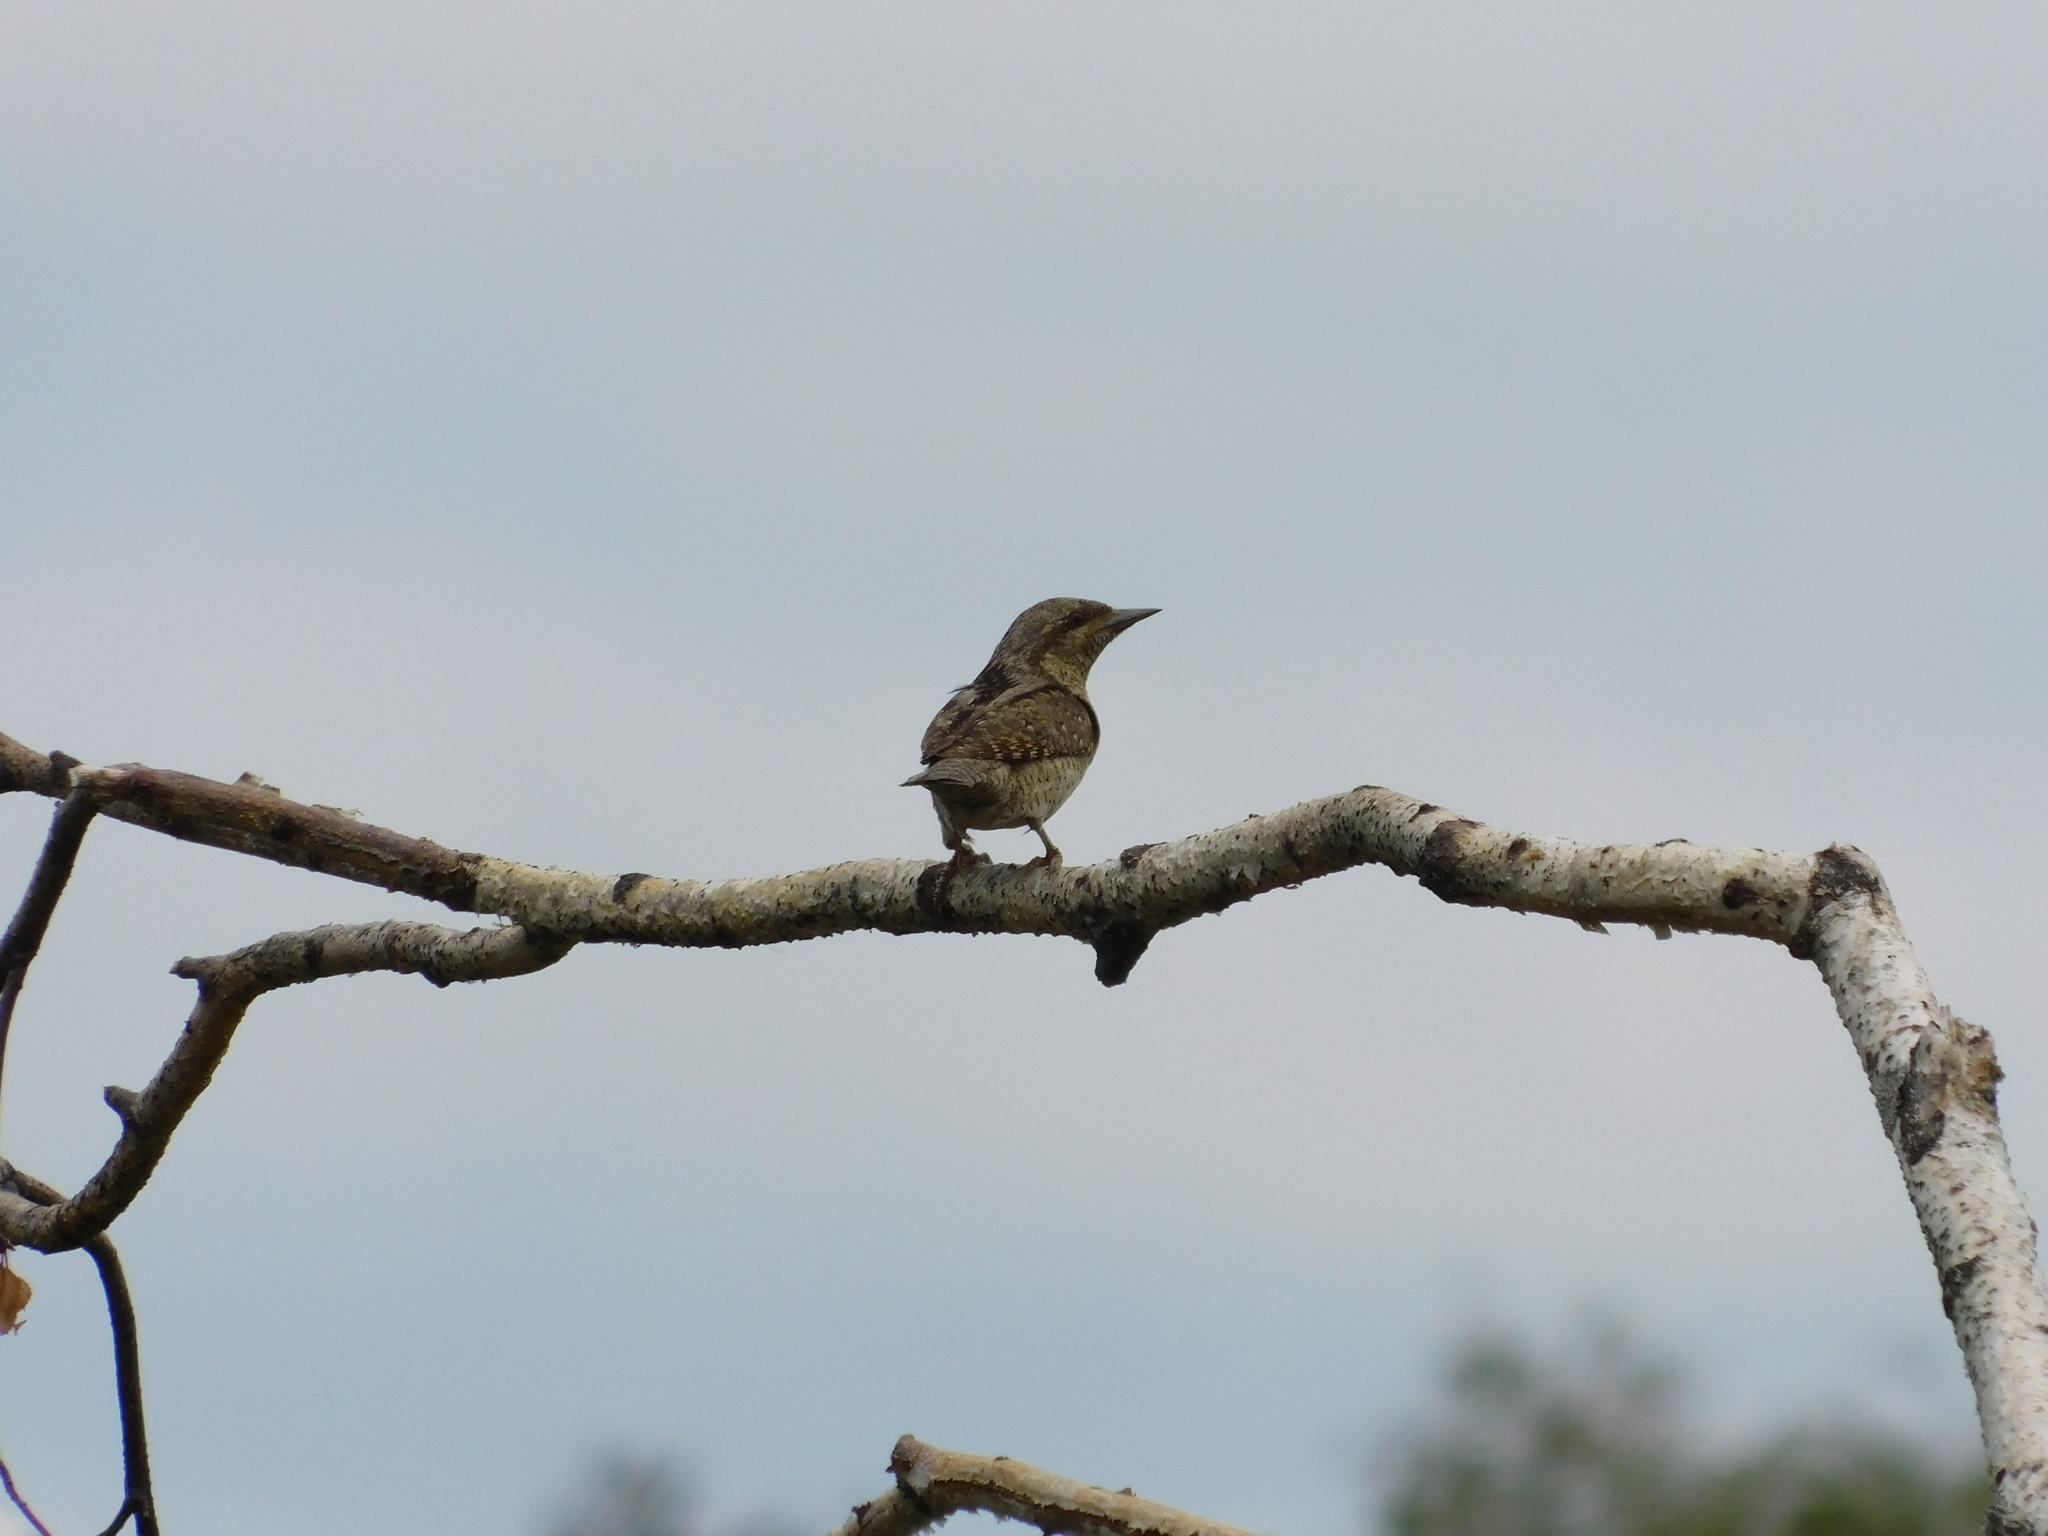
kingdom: Animalia
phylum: Chordata
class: Aves
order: Piciformes
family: Picidae
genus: Jynx
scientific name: Jynx torquilla
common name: Eurasian wryneck
